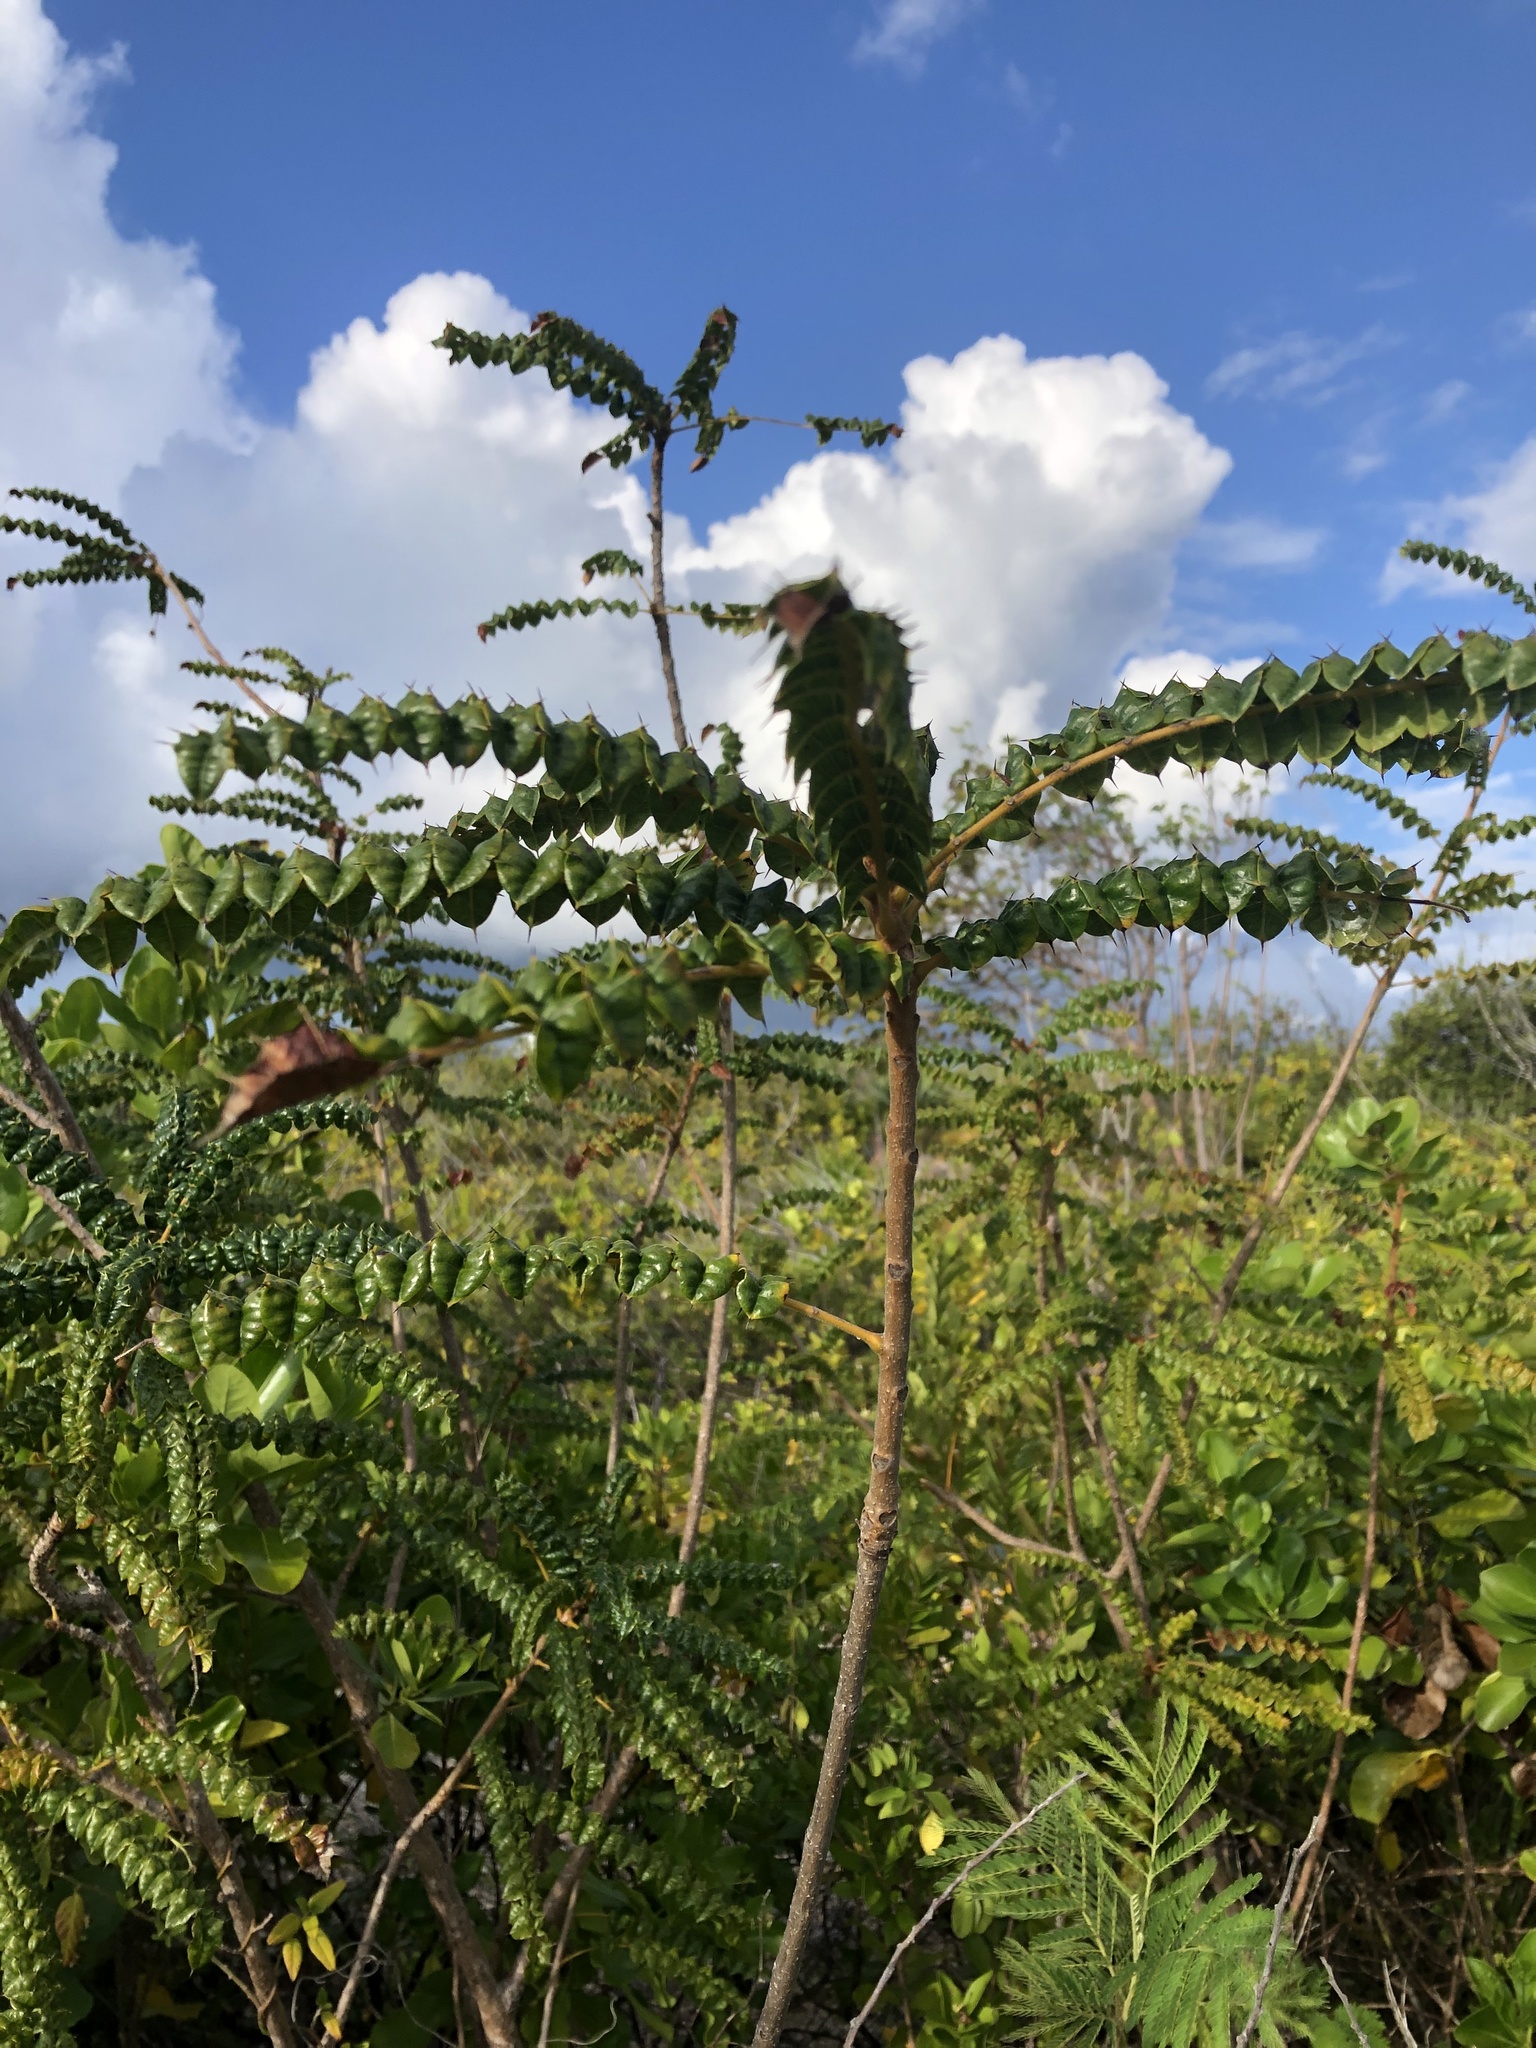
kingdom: Plantae
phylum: Tracheophyta
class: Magnoliopsida
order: Sapindales
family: Anacardiaceae
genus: Comocladia
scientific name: Comocladia dodonaea
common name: Poison ash
